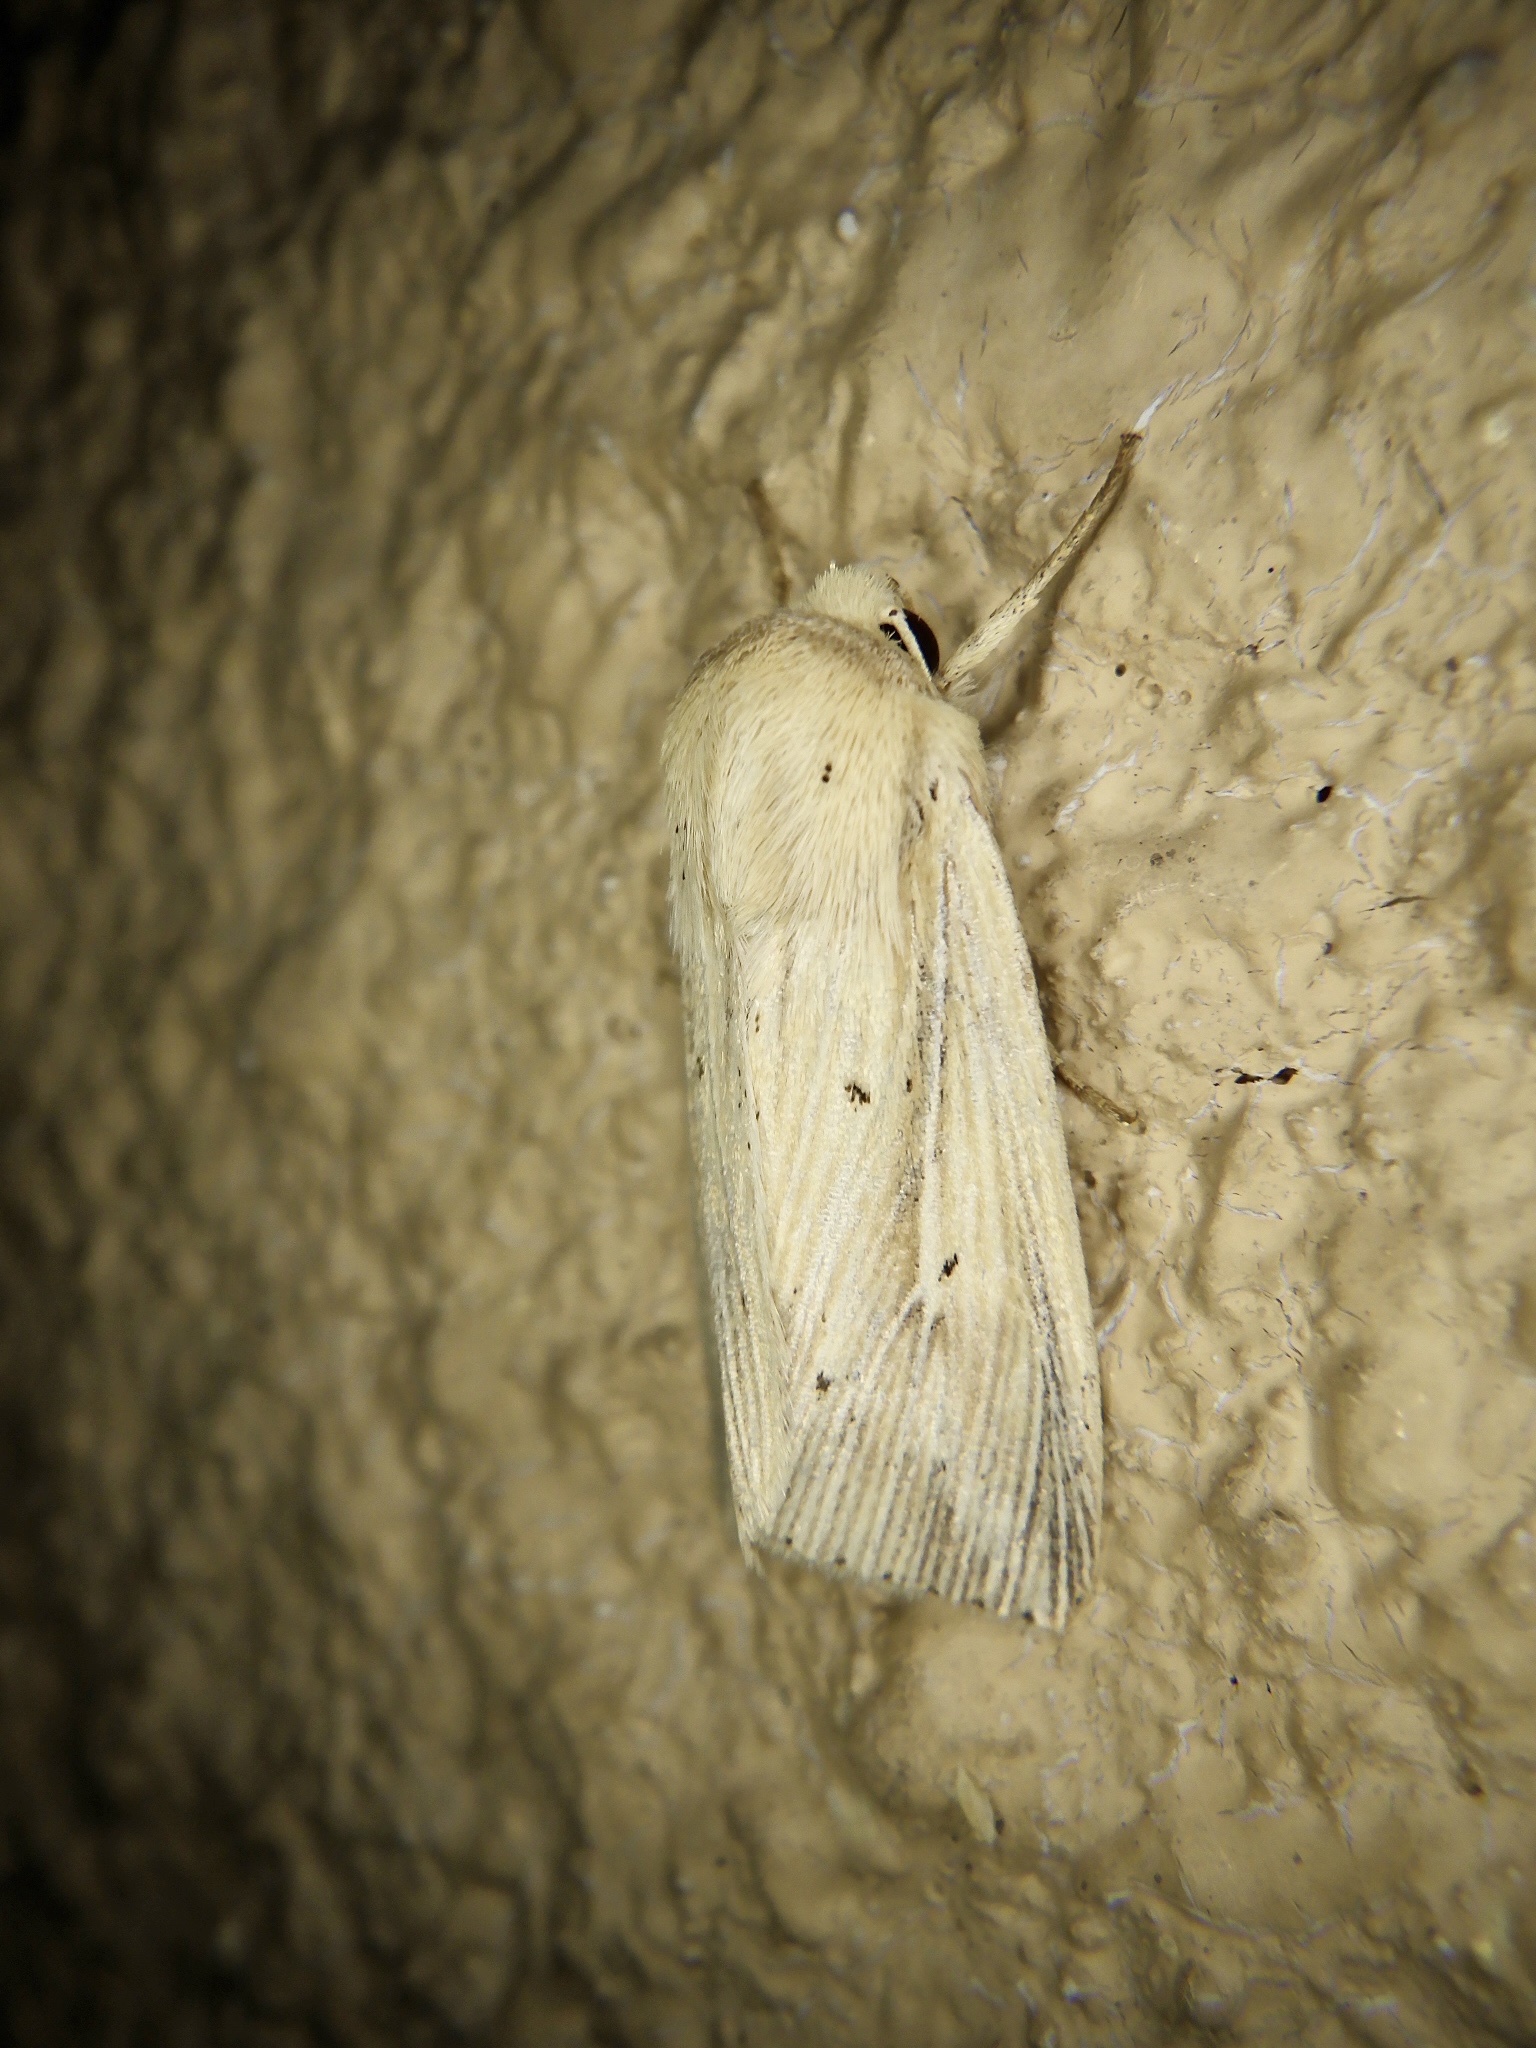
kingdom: Animalia
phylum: Arthropoda
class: Insecta
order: Lepidoptera
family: Noctuidae
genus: Mythimna
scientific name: Mythimna radiata
